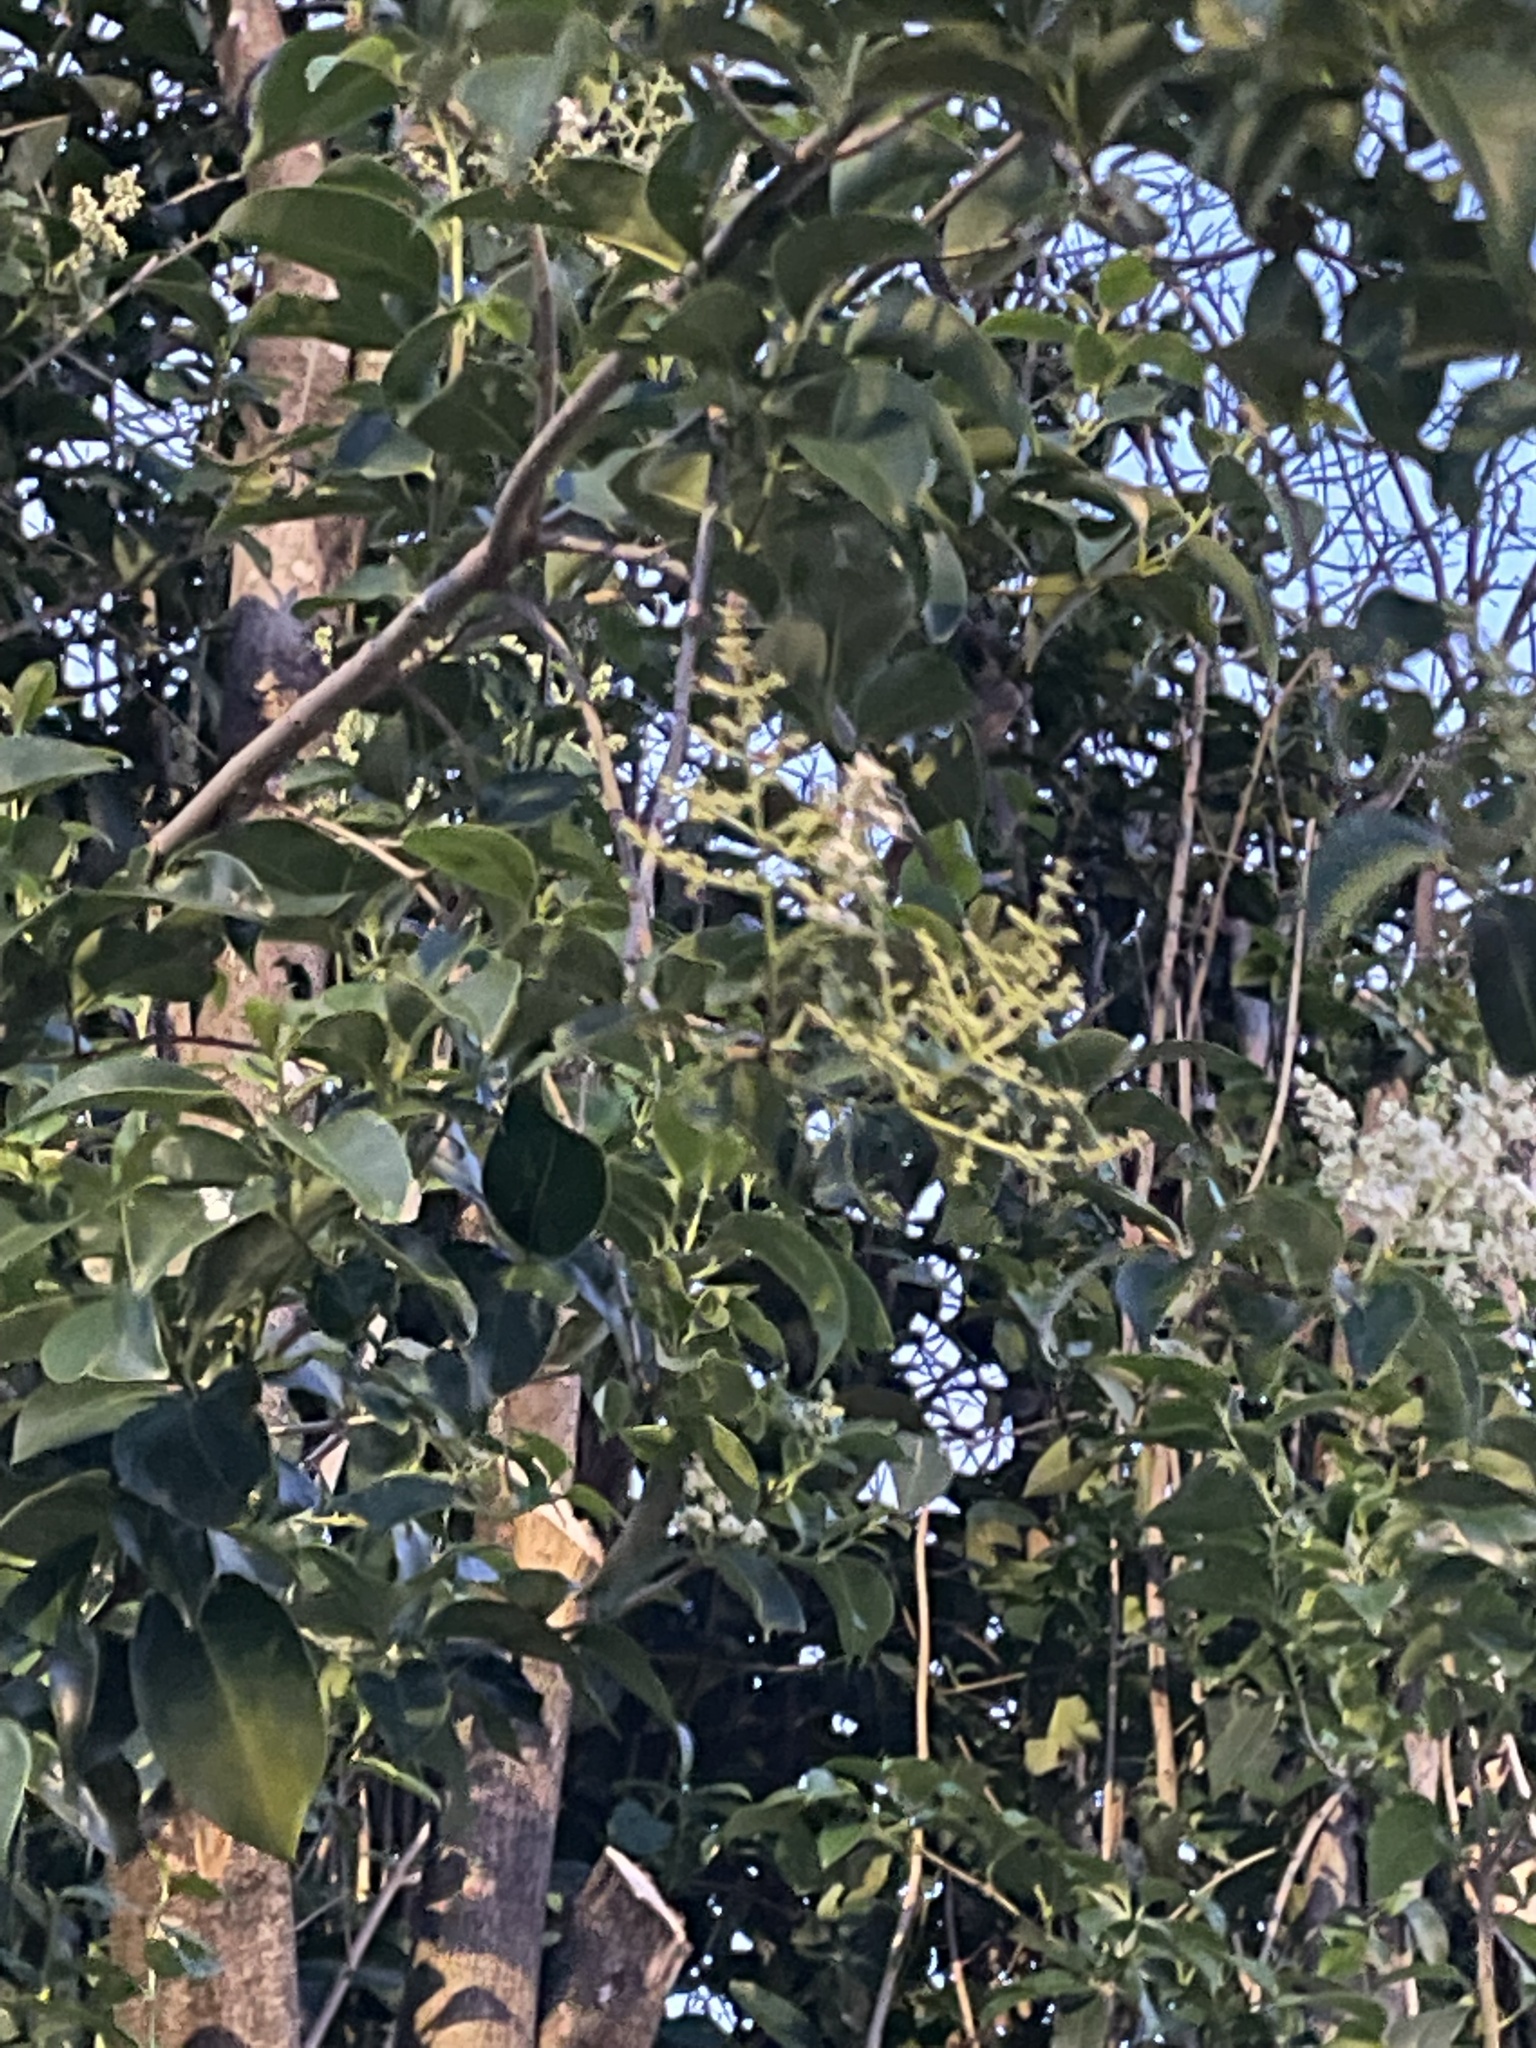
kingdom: Plantae
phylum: Tracheophyta
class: Magnoliopsida
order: Lamiales
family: Oleaceae
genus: Ligustrum
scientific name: Ligustrum lucidum
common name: Glossy privet
